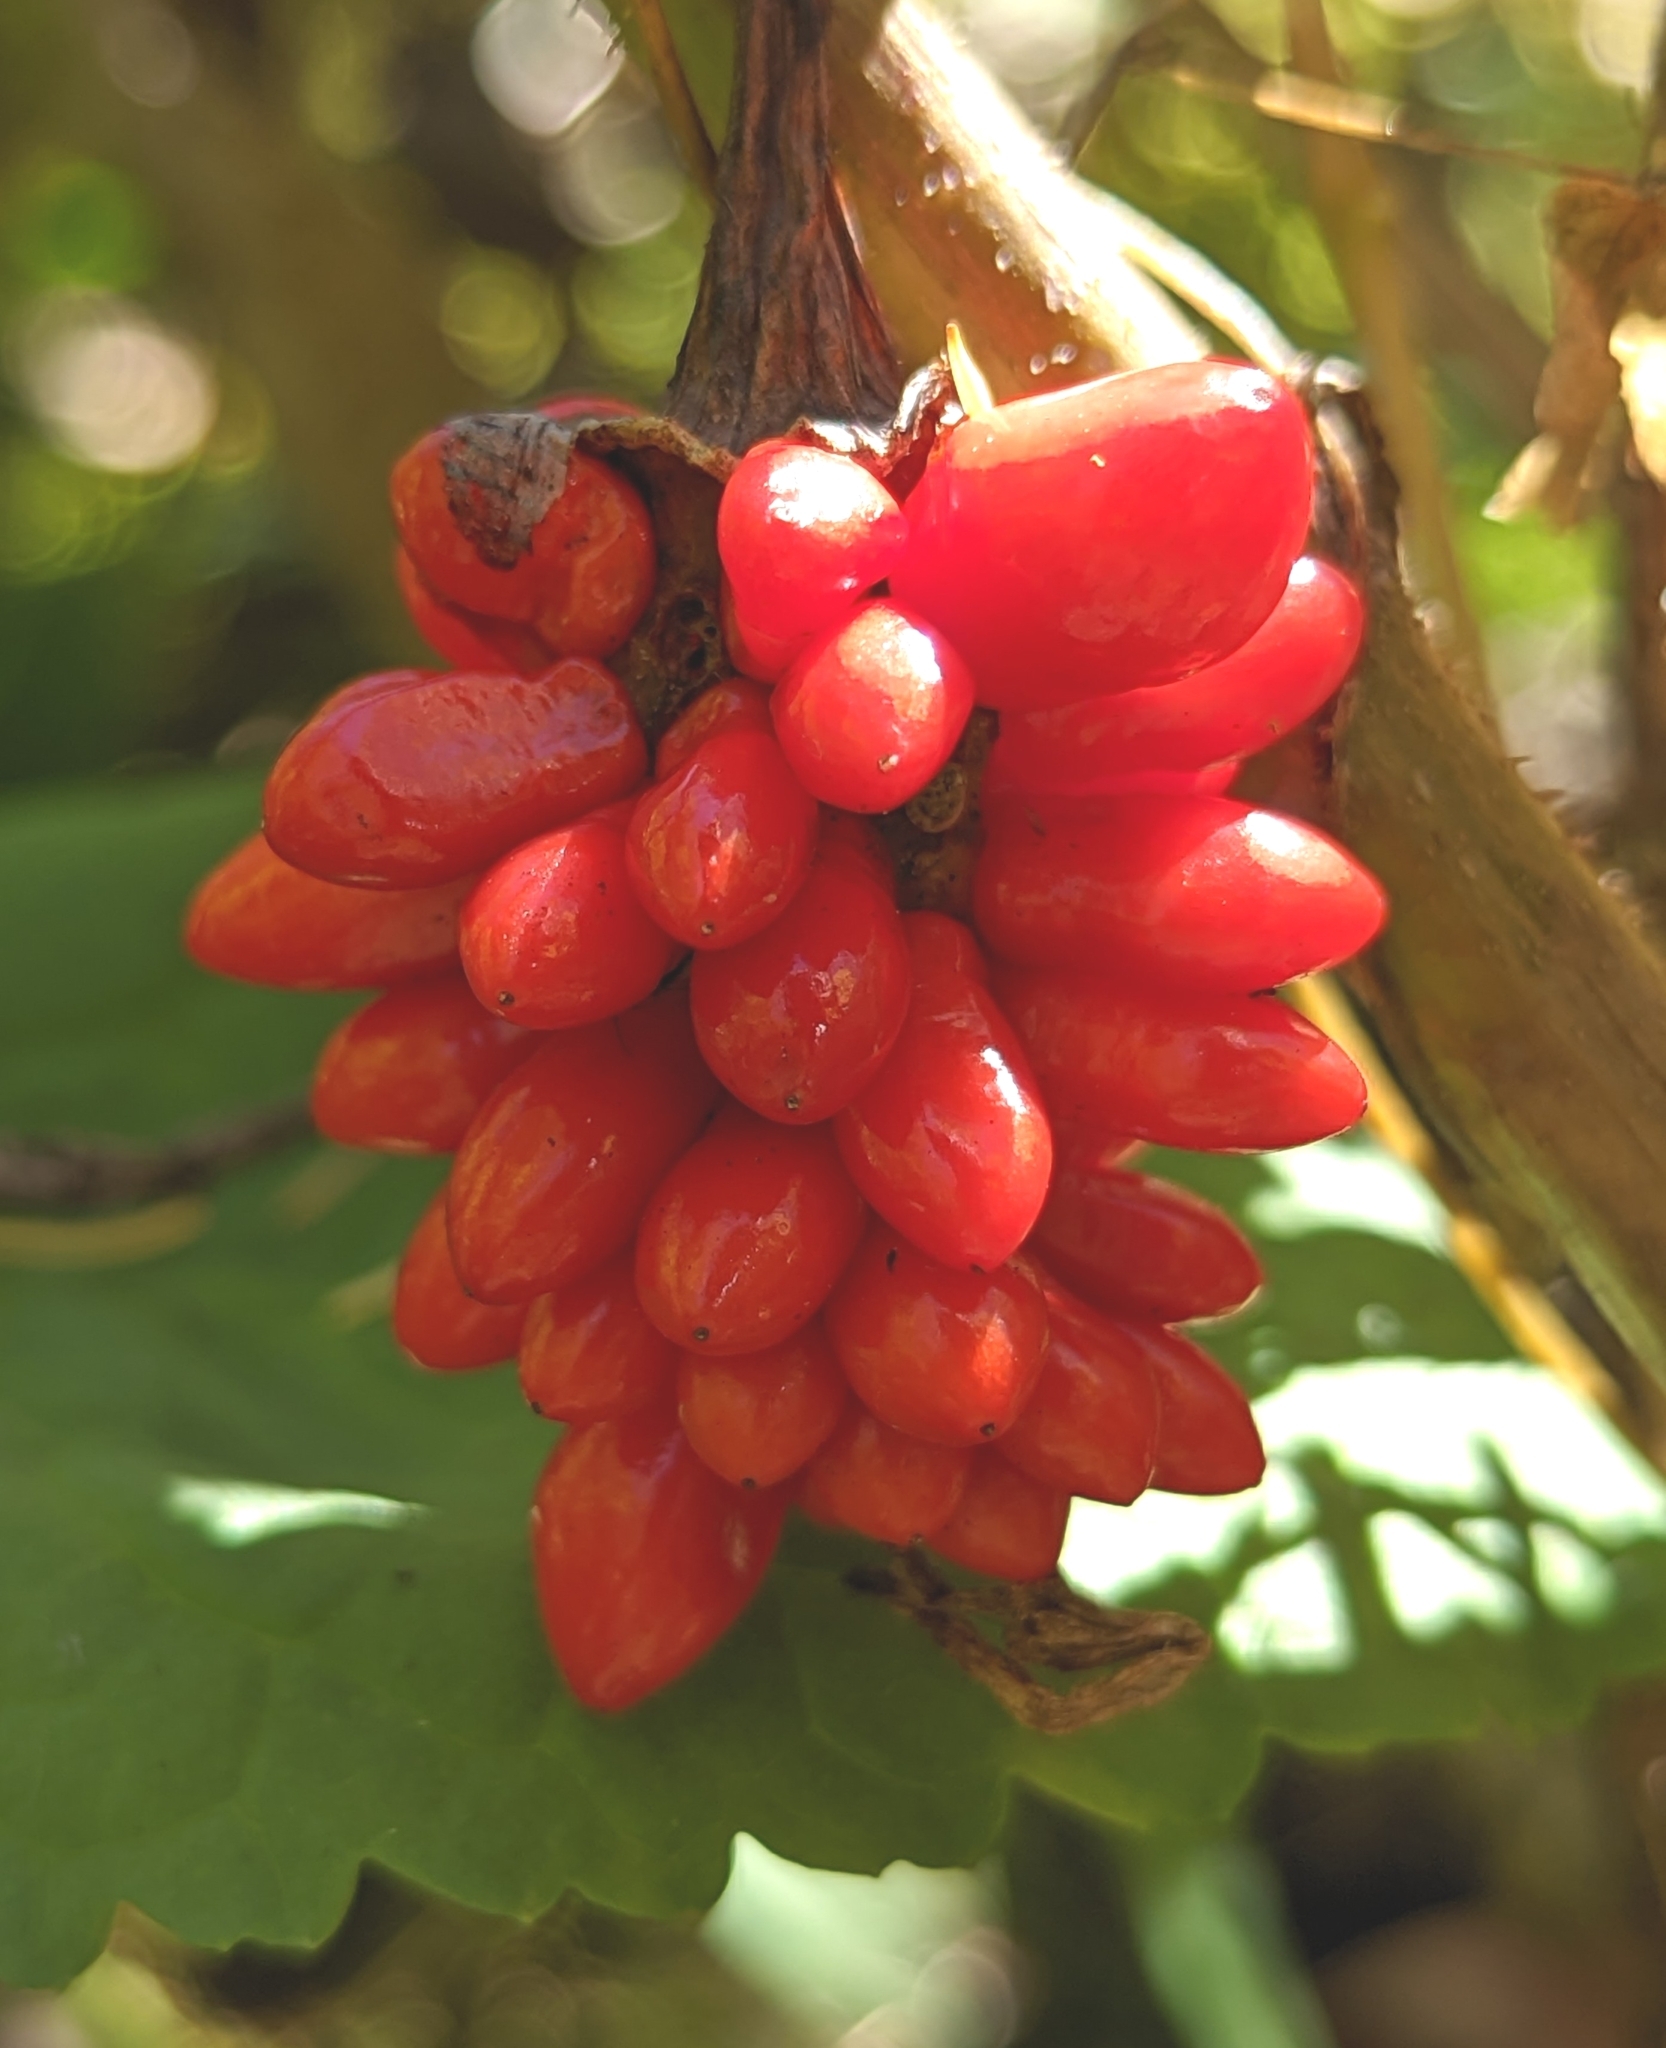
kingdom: Plantae
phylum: Tracheophyta
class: Liliopsida
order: Alismatales
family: Araceae
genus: Arisaema
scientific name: Arisaema triphyllum
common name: Jack-in-the-pulpit
